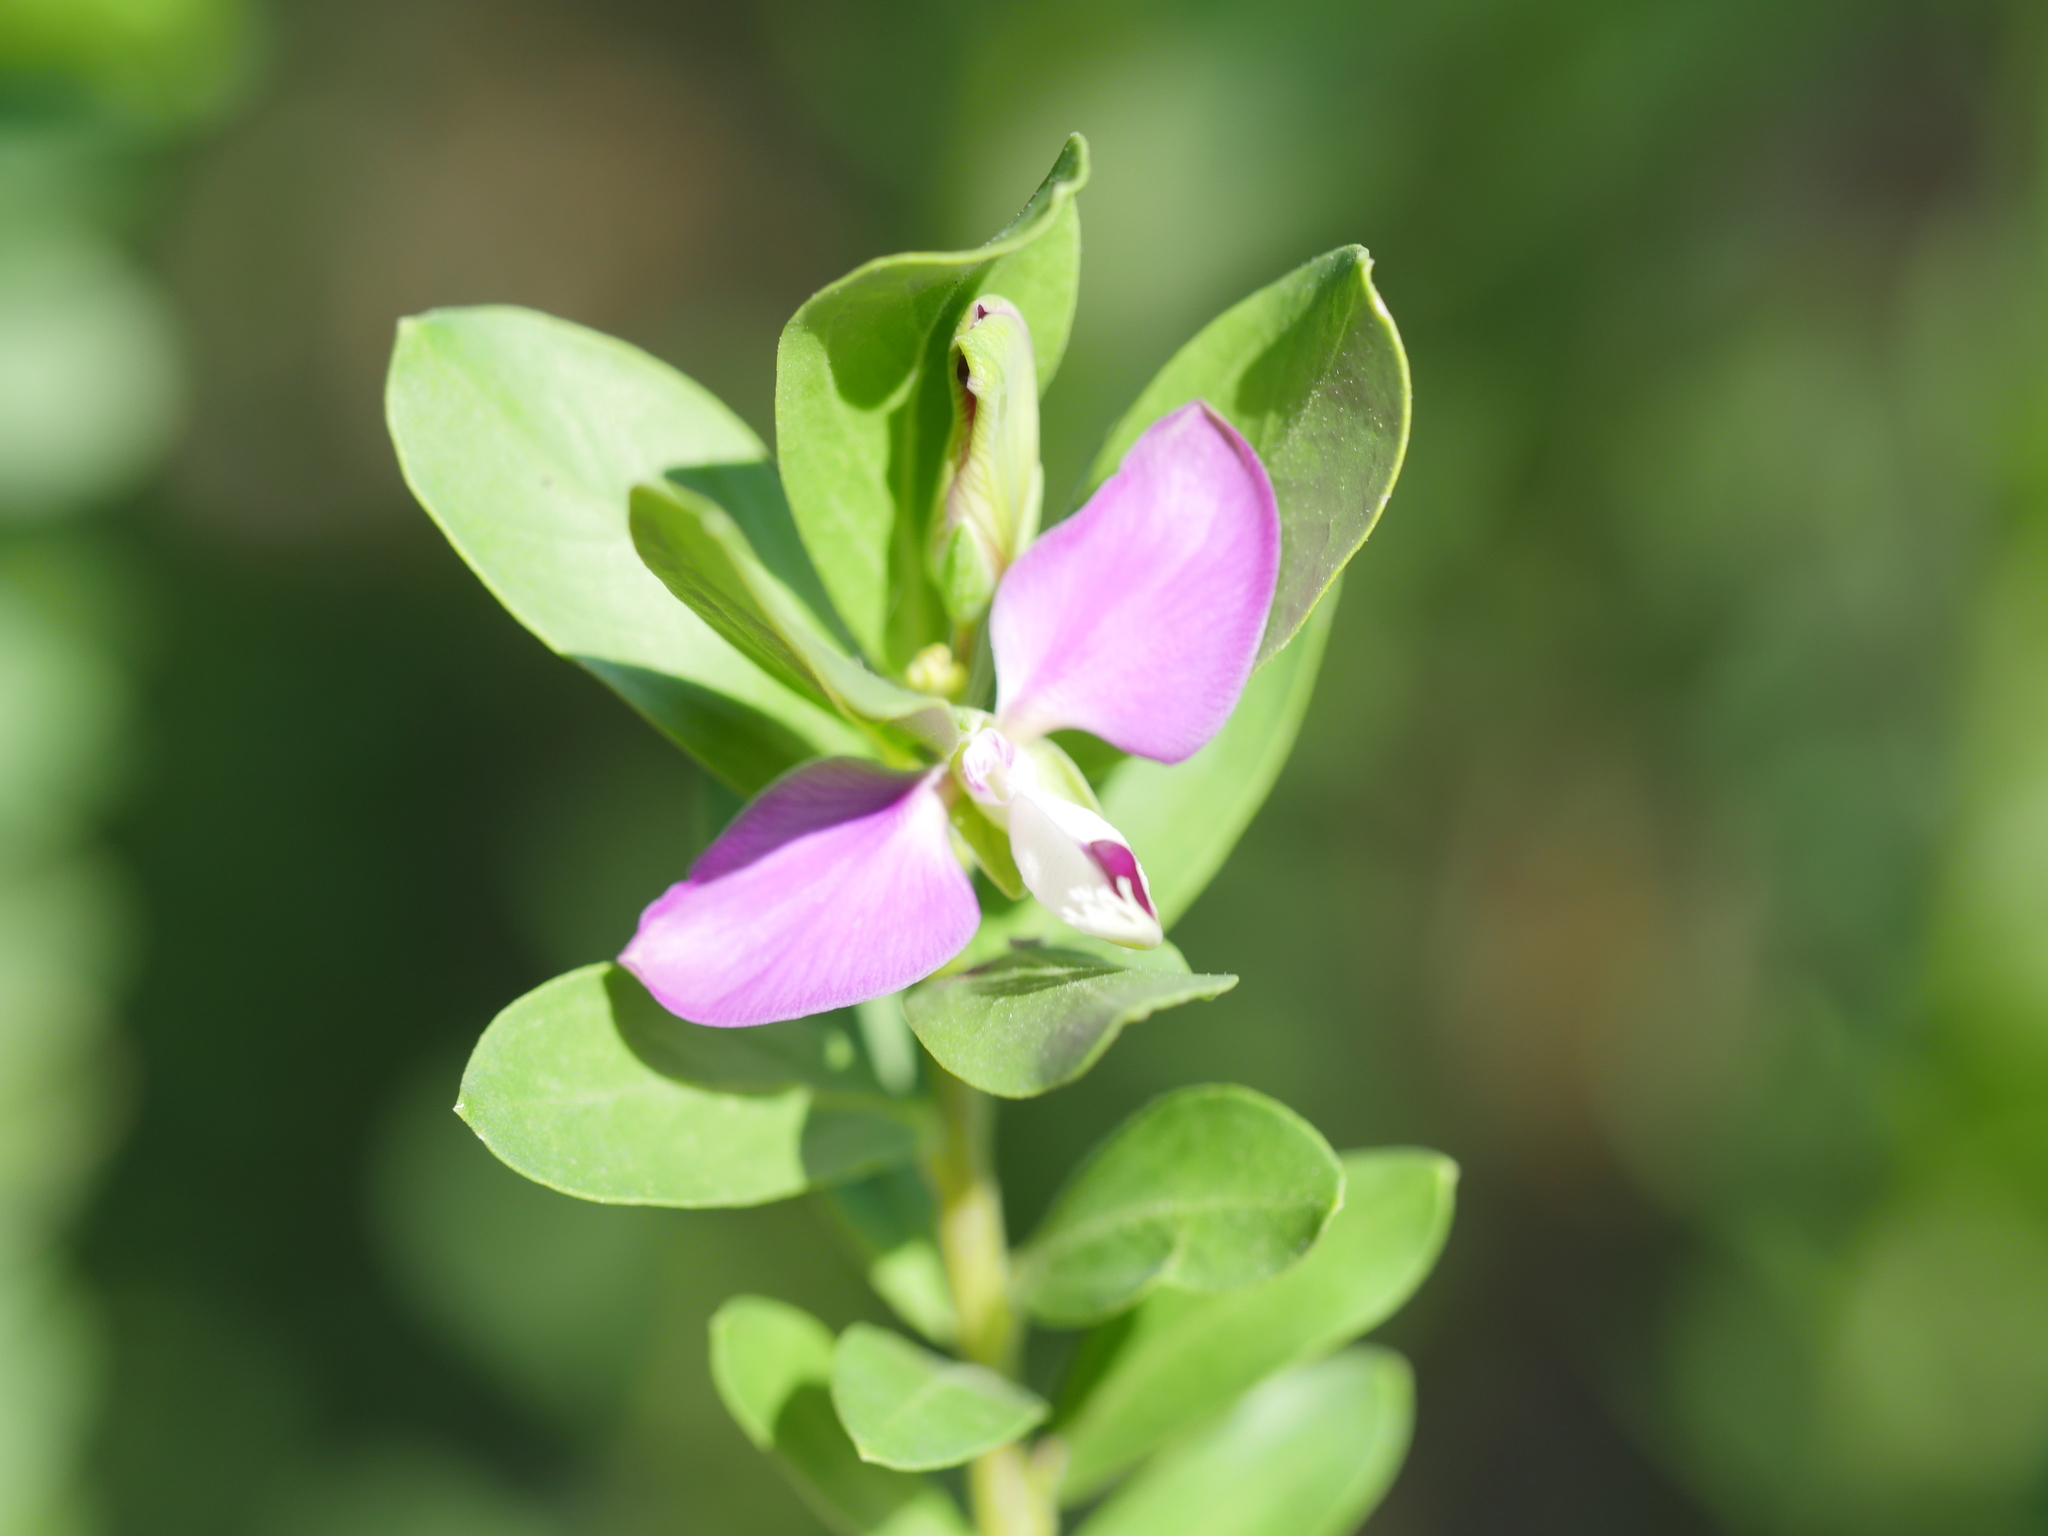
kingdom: Plantae
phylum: Tracheophyta
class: Magnoliopsida
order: Fabales
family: Polygalaceae
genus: Polygala
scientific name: Polygala myrtifolia
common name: Myrtle-leaf milkwort
